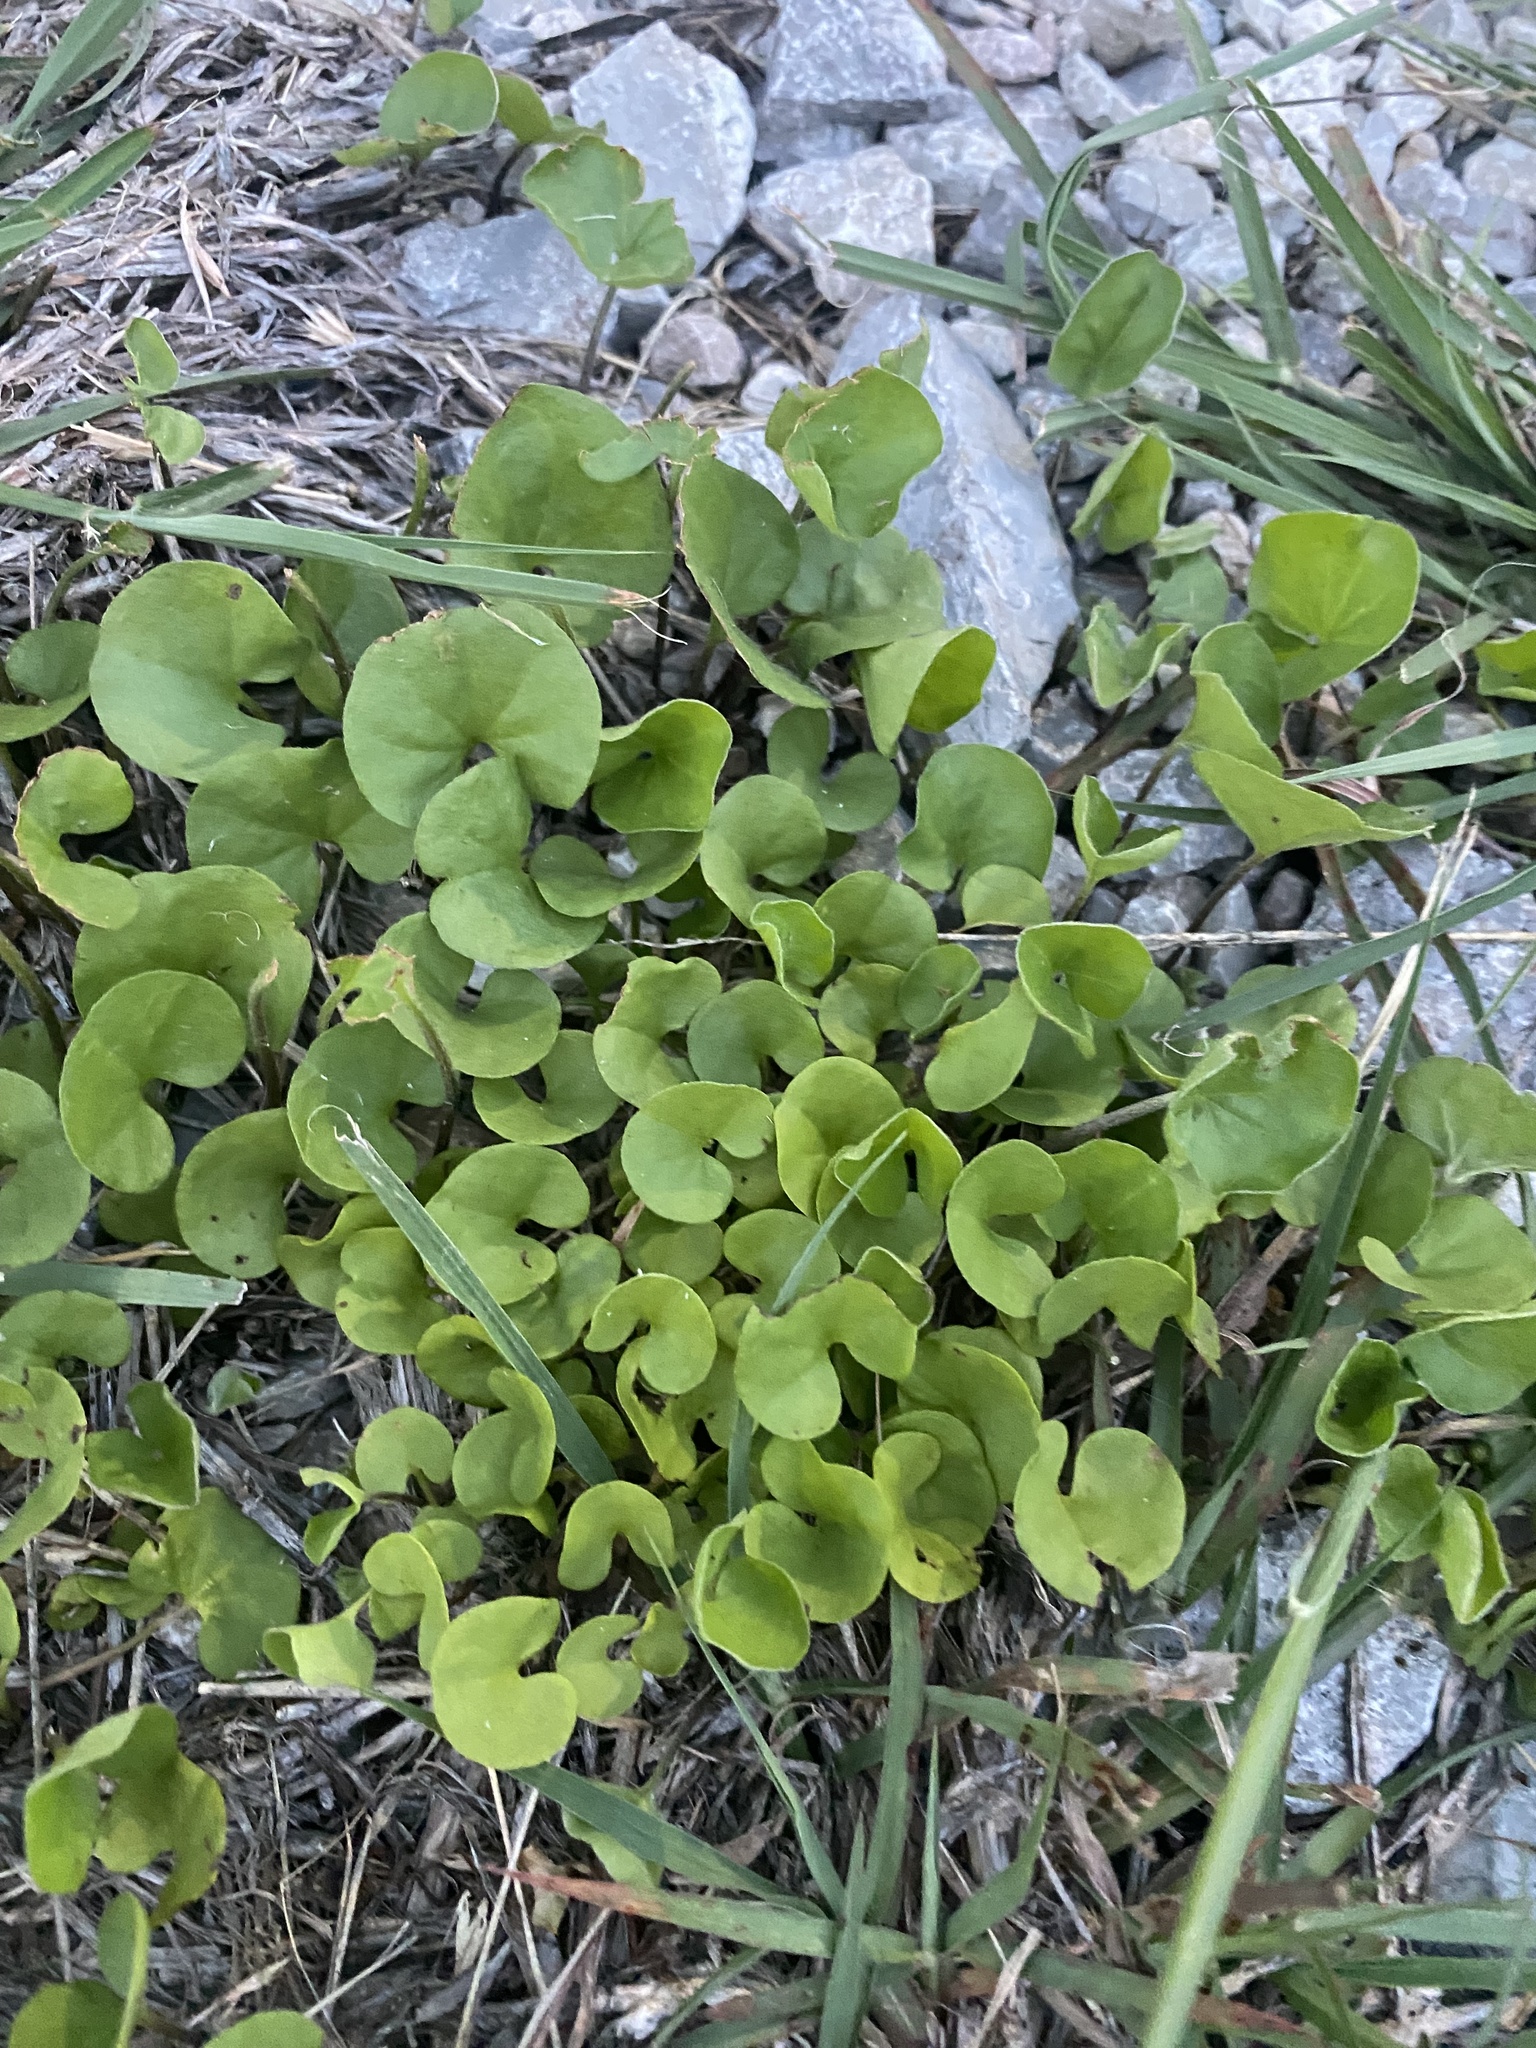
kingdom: Plantae
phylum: Tracheophyta
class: Magnoliopsida
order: Solanales
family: Convolvulaceae
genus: Dichondra
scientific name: Dichondra carolinensis
